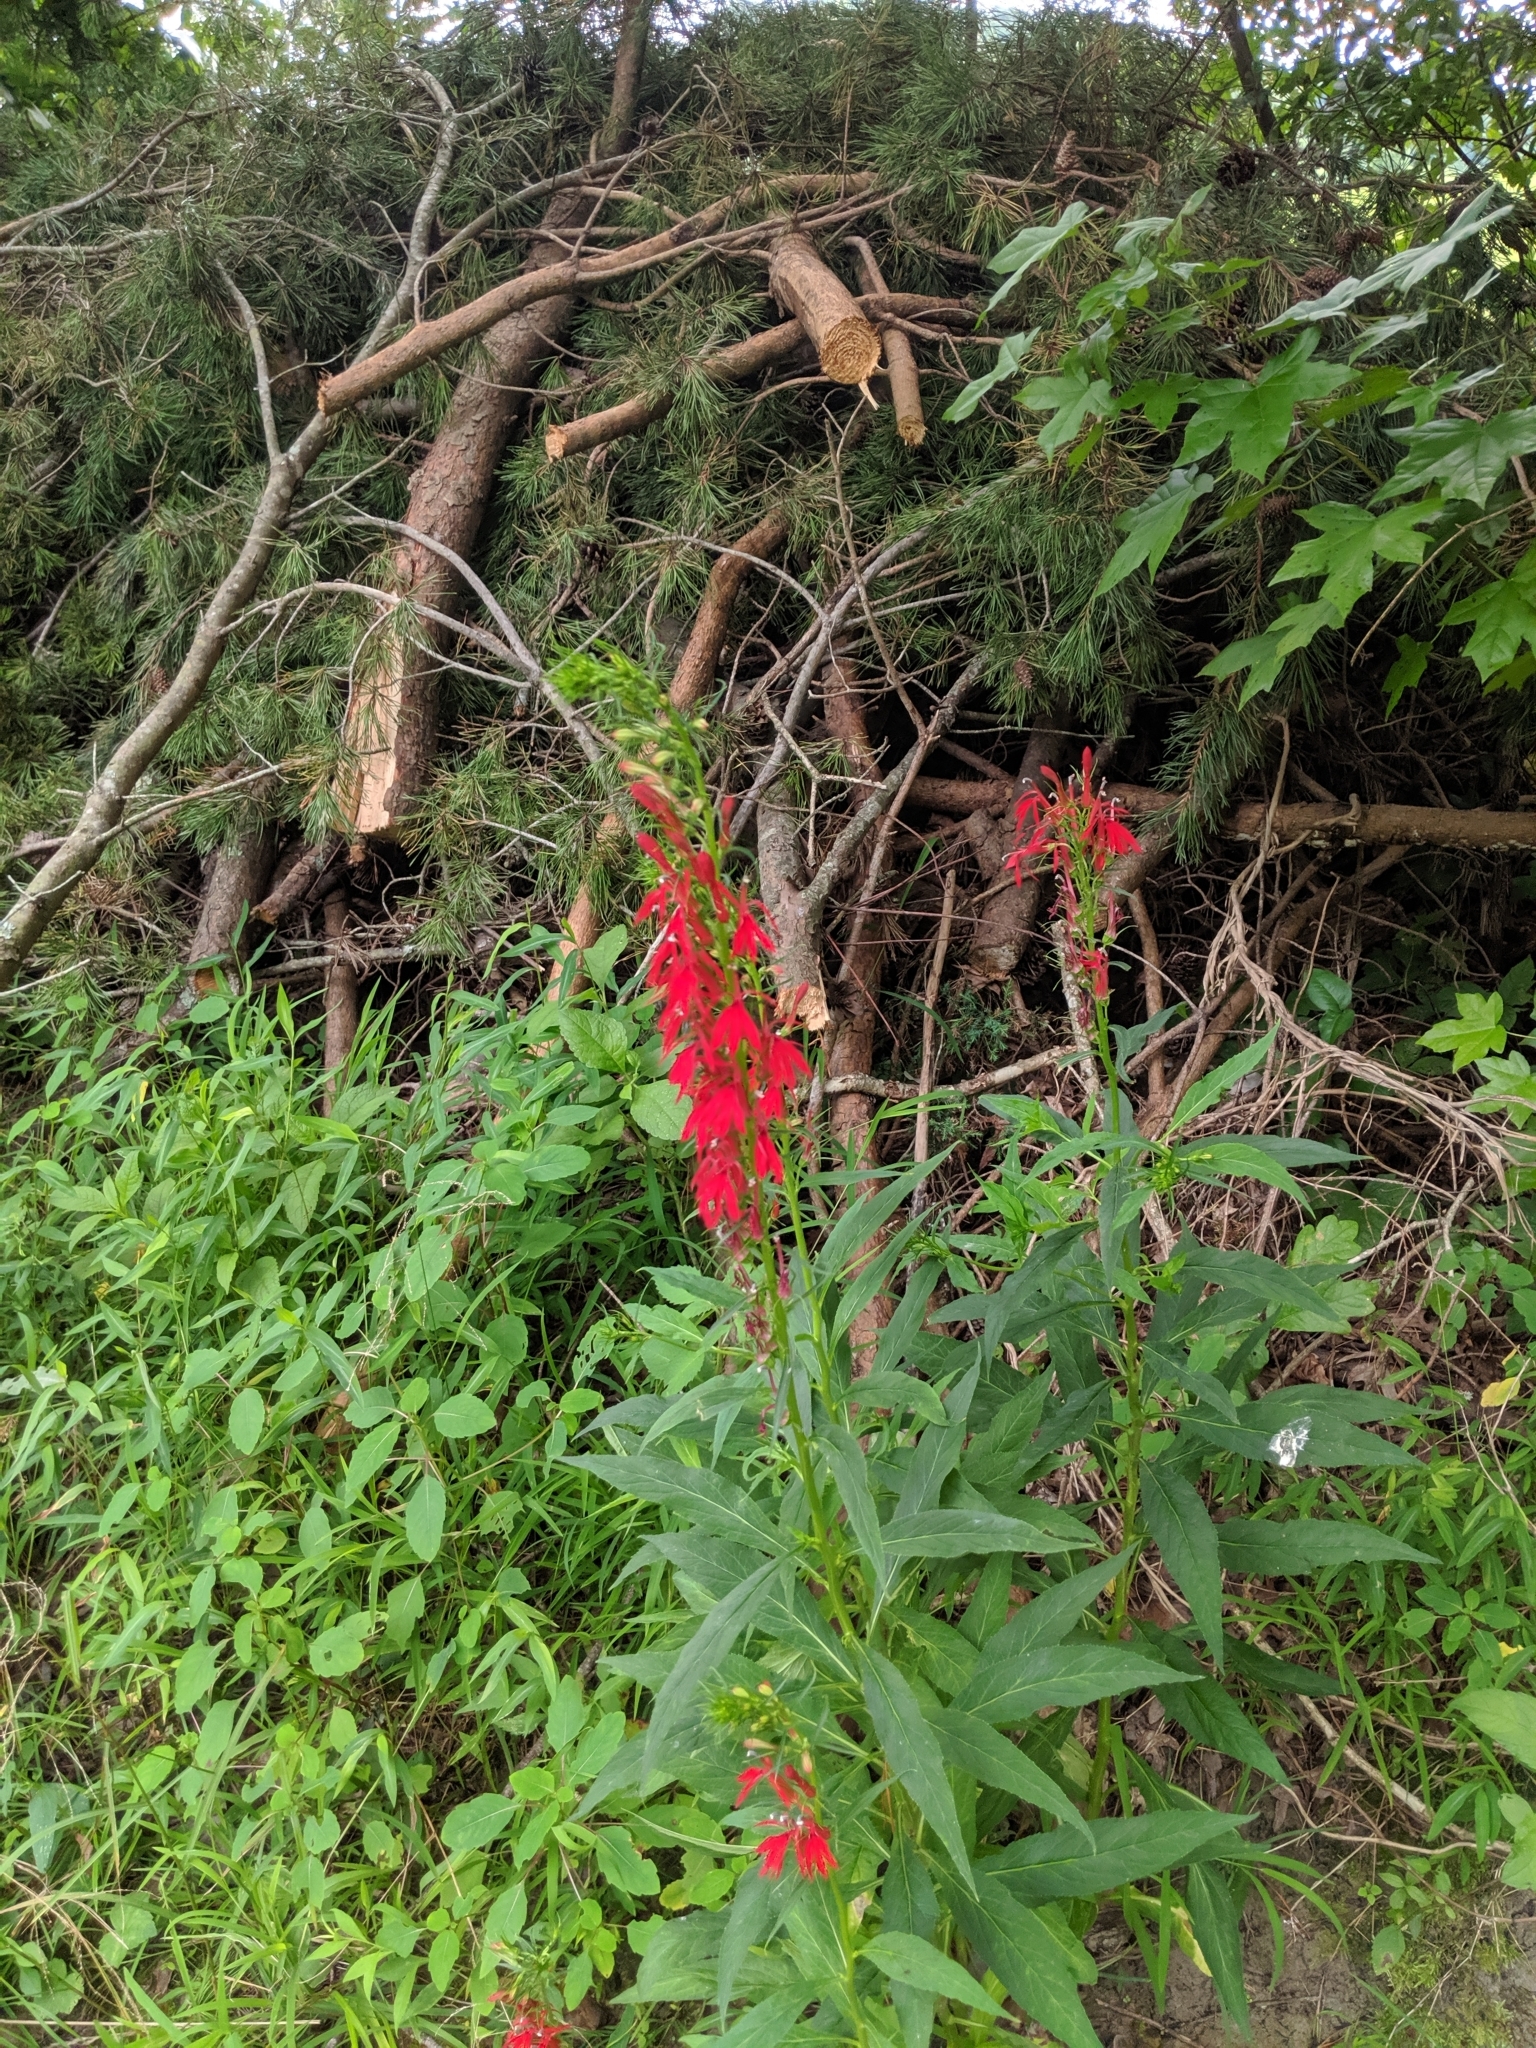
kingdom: Plantae
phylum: Tracheophyta
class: Magnoliopsida
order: Asterales
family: Campanulaceae
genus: Lobelia
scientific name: Lobelia cardinalis
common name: Cardinal flower
